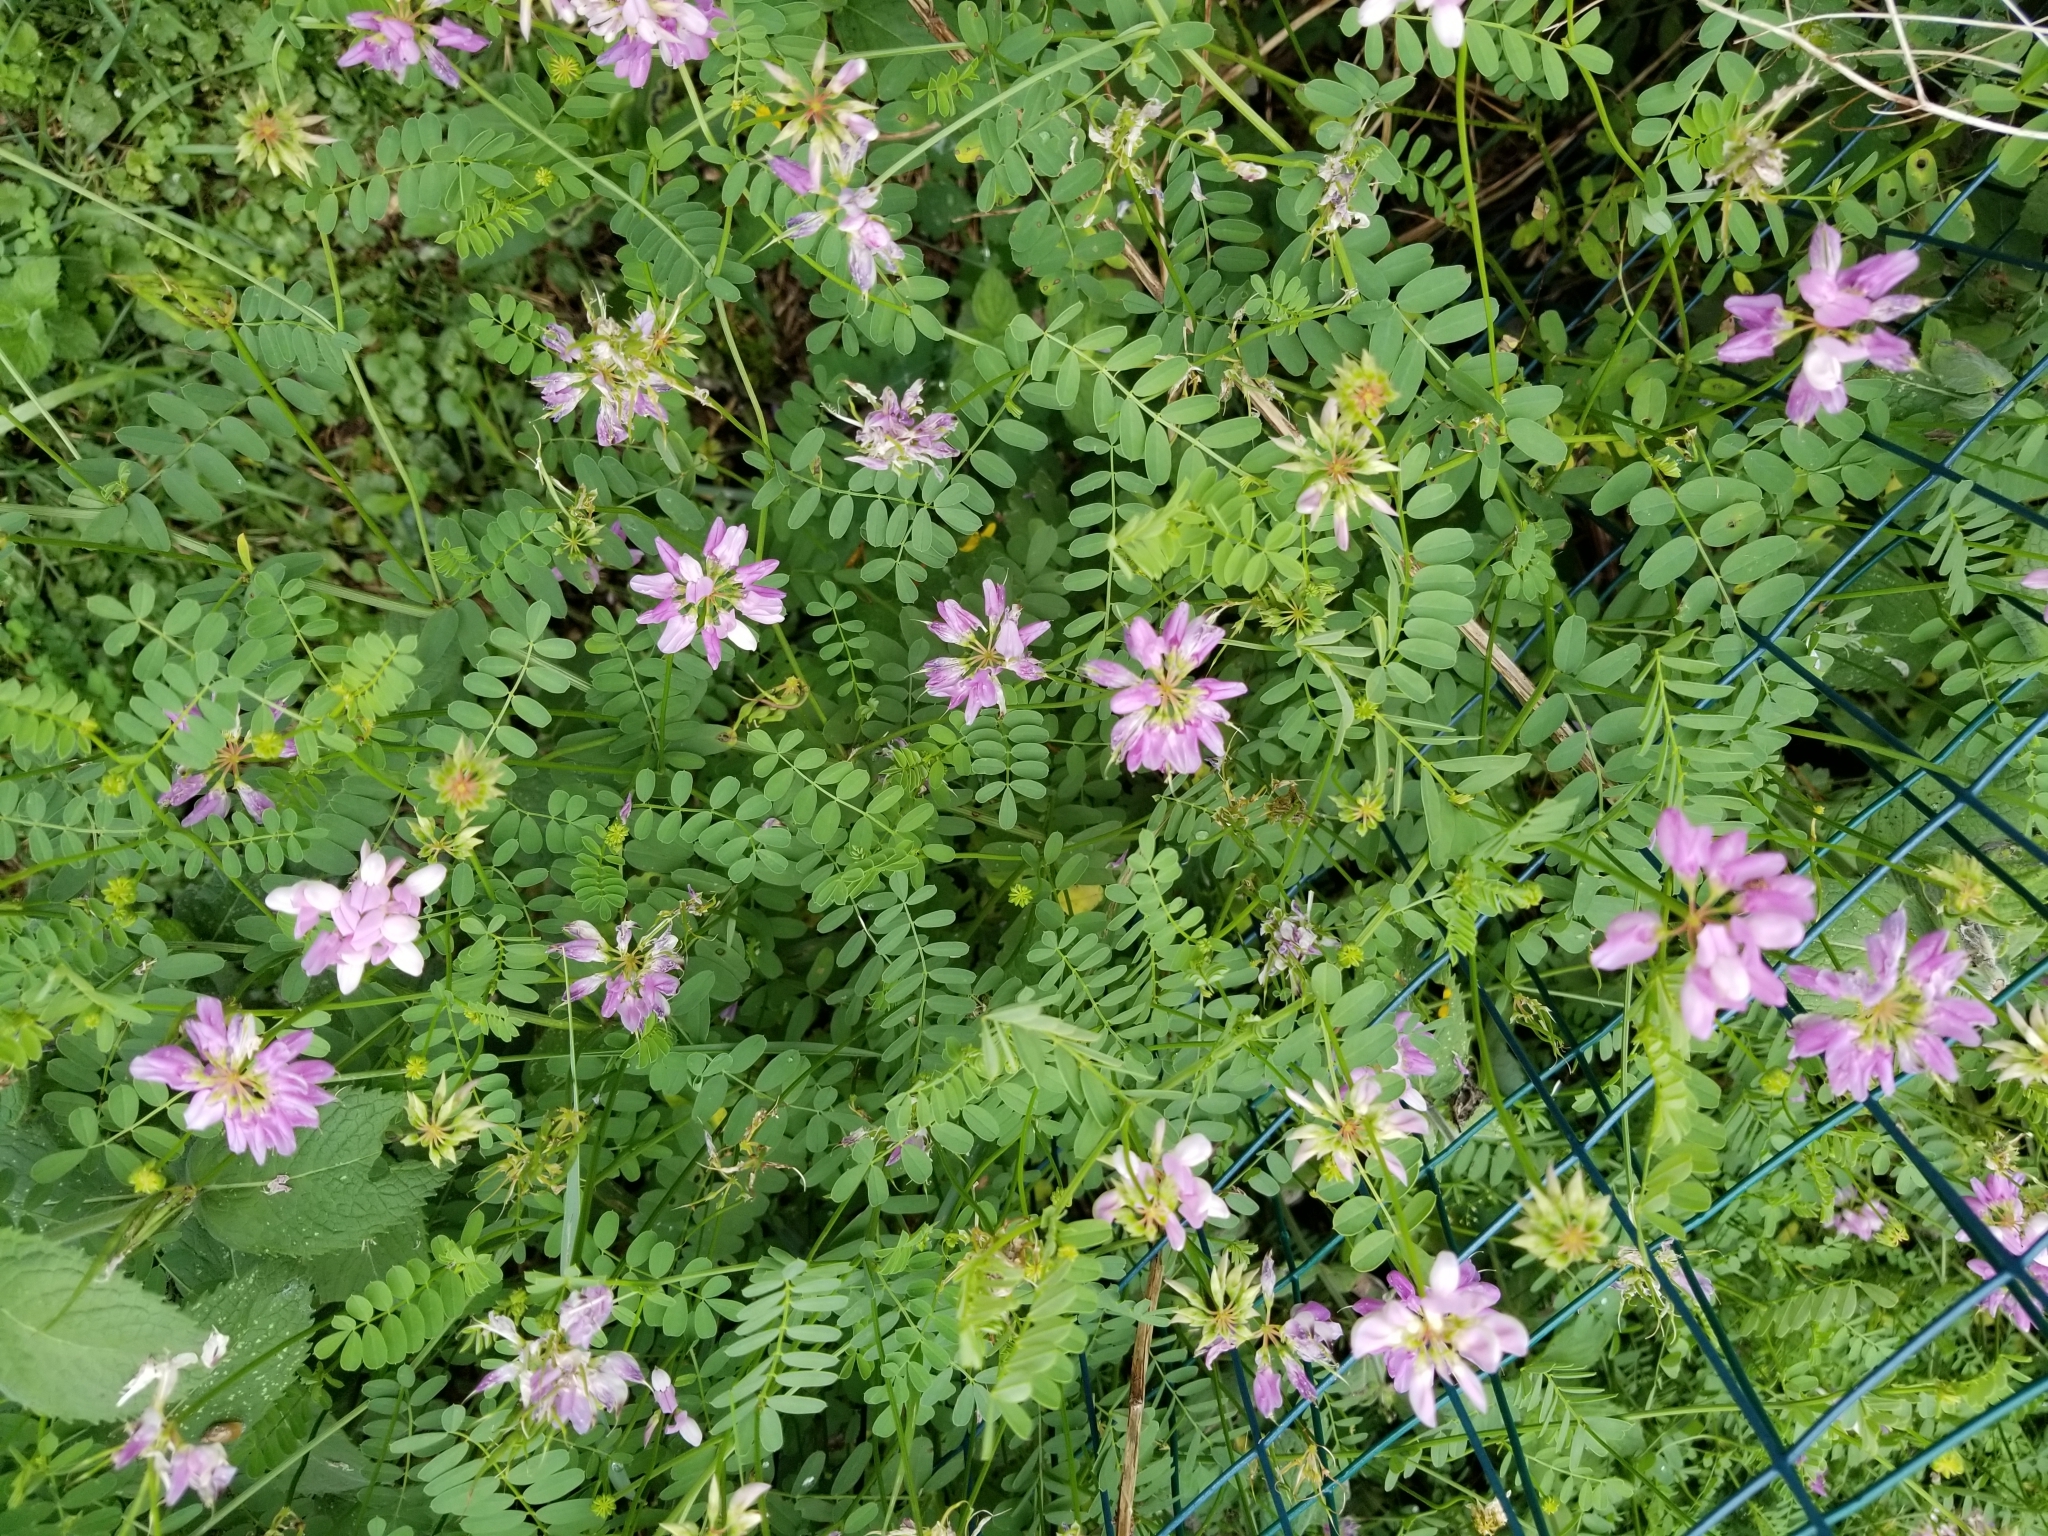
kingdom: Plantae
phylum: Tracheophyta
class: Magnoliopsida
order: Fabales
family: Fabaceae
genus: Coronilla
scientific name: Coronilla varia
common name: Crownvetch
